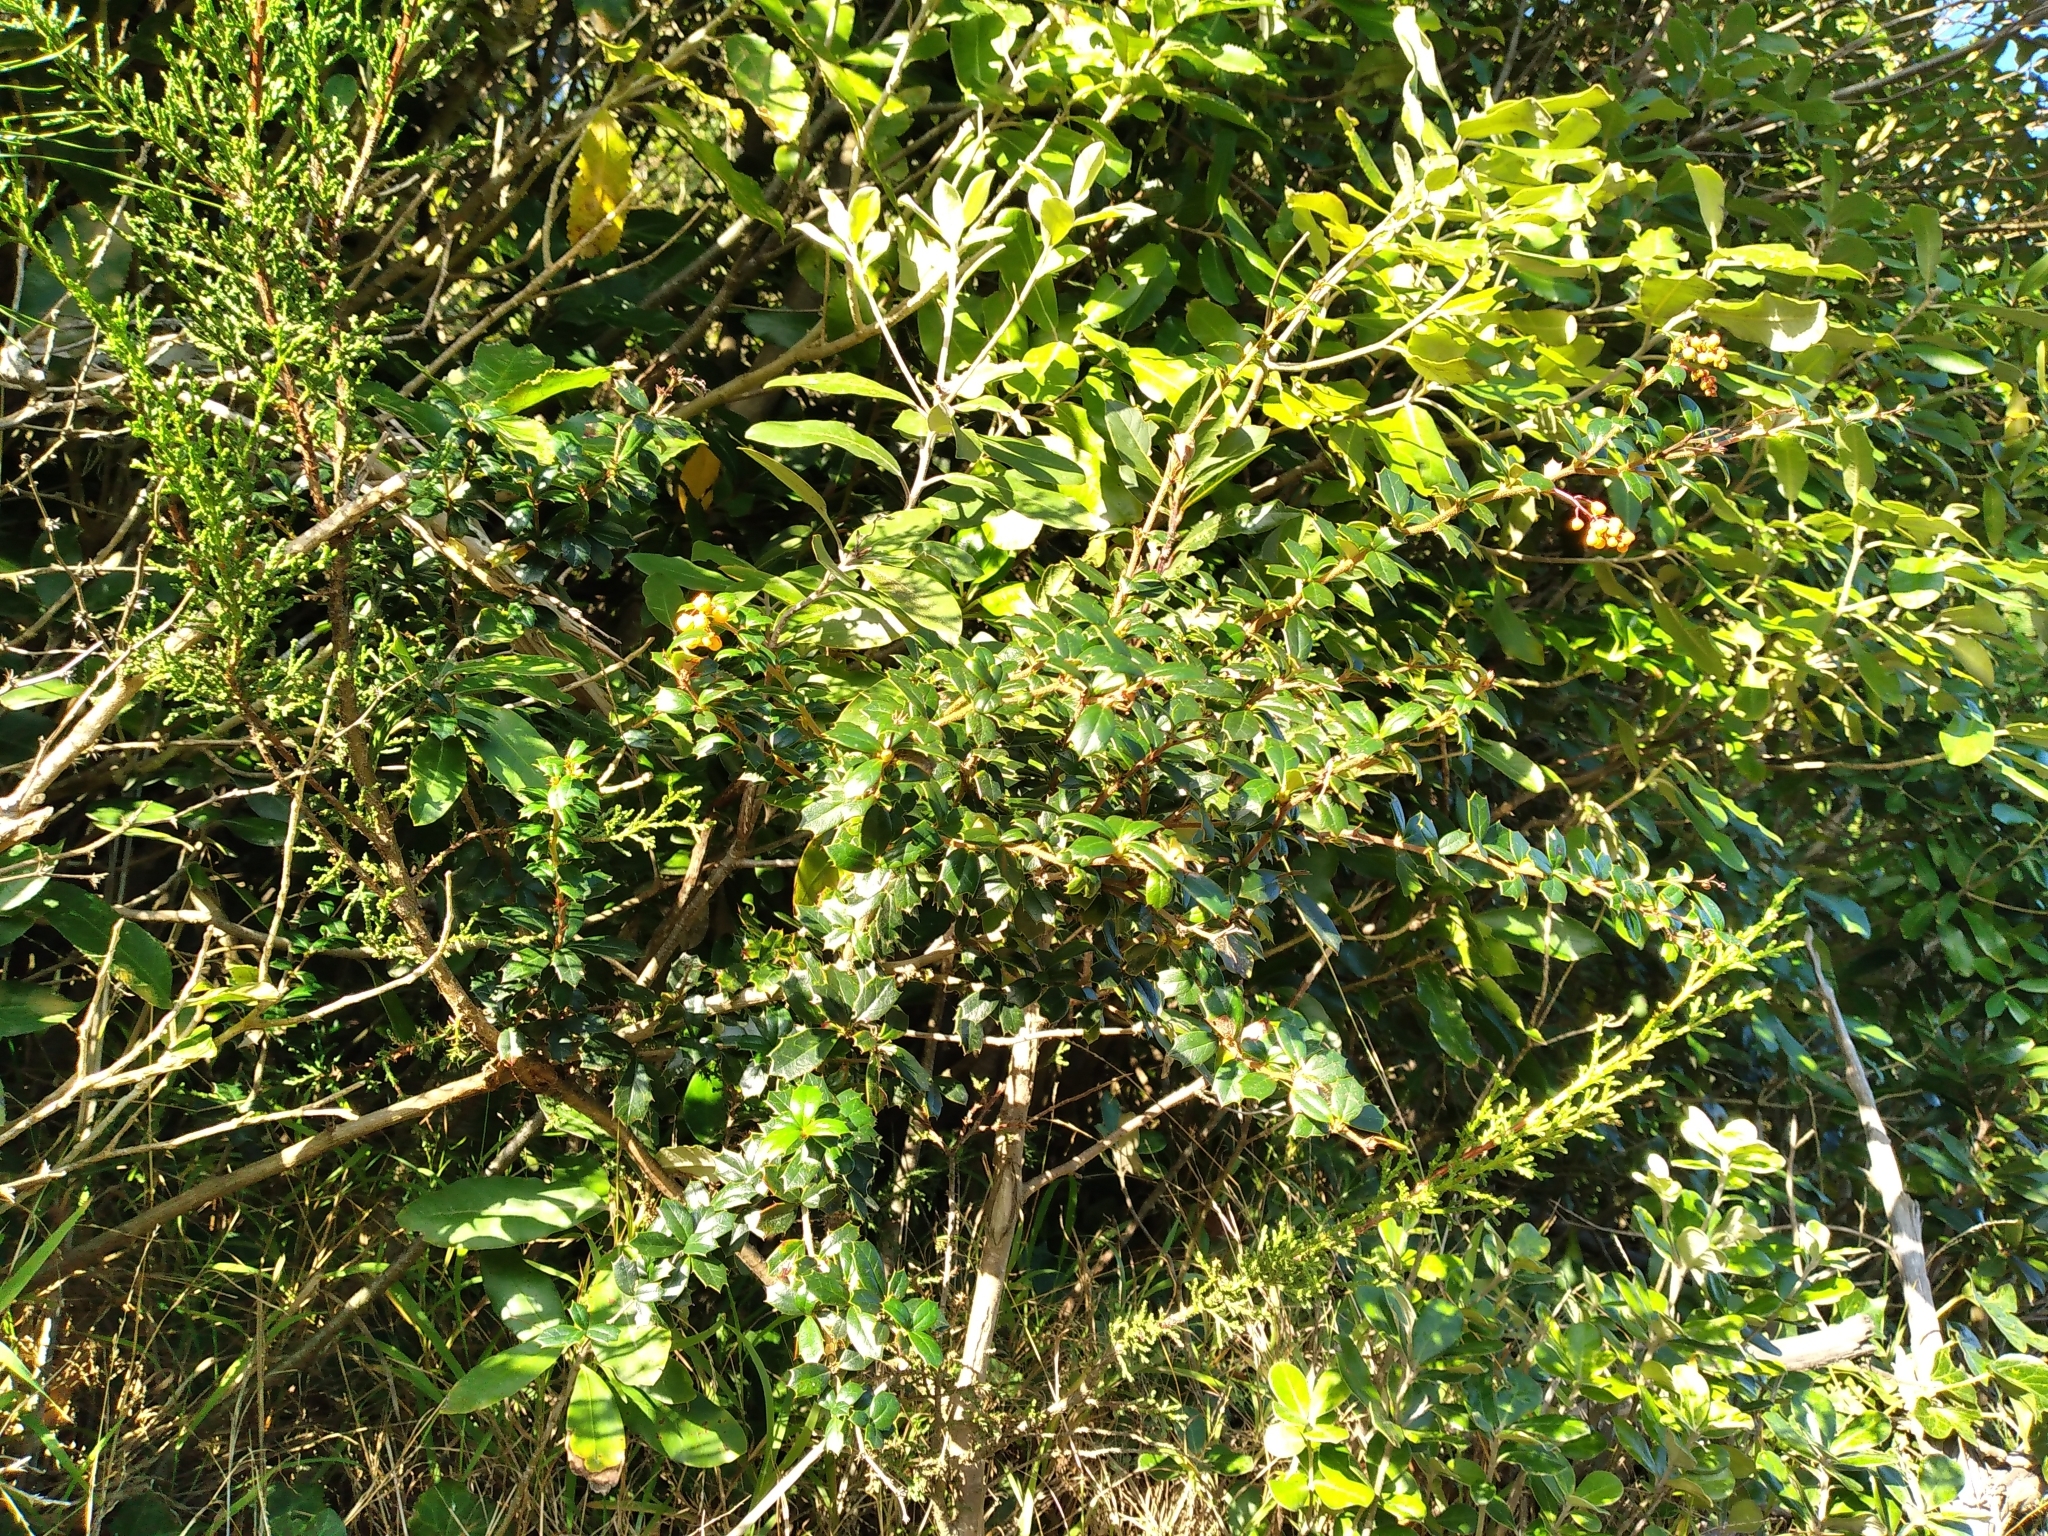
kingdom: Plantae
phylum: Tracheophyta
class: Magnoliopsida
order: Ranunculales
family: Berberidaceae
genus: Berberis
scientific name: Berberis darwinii
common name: Darwin's barberry
